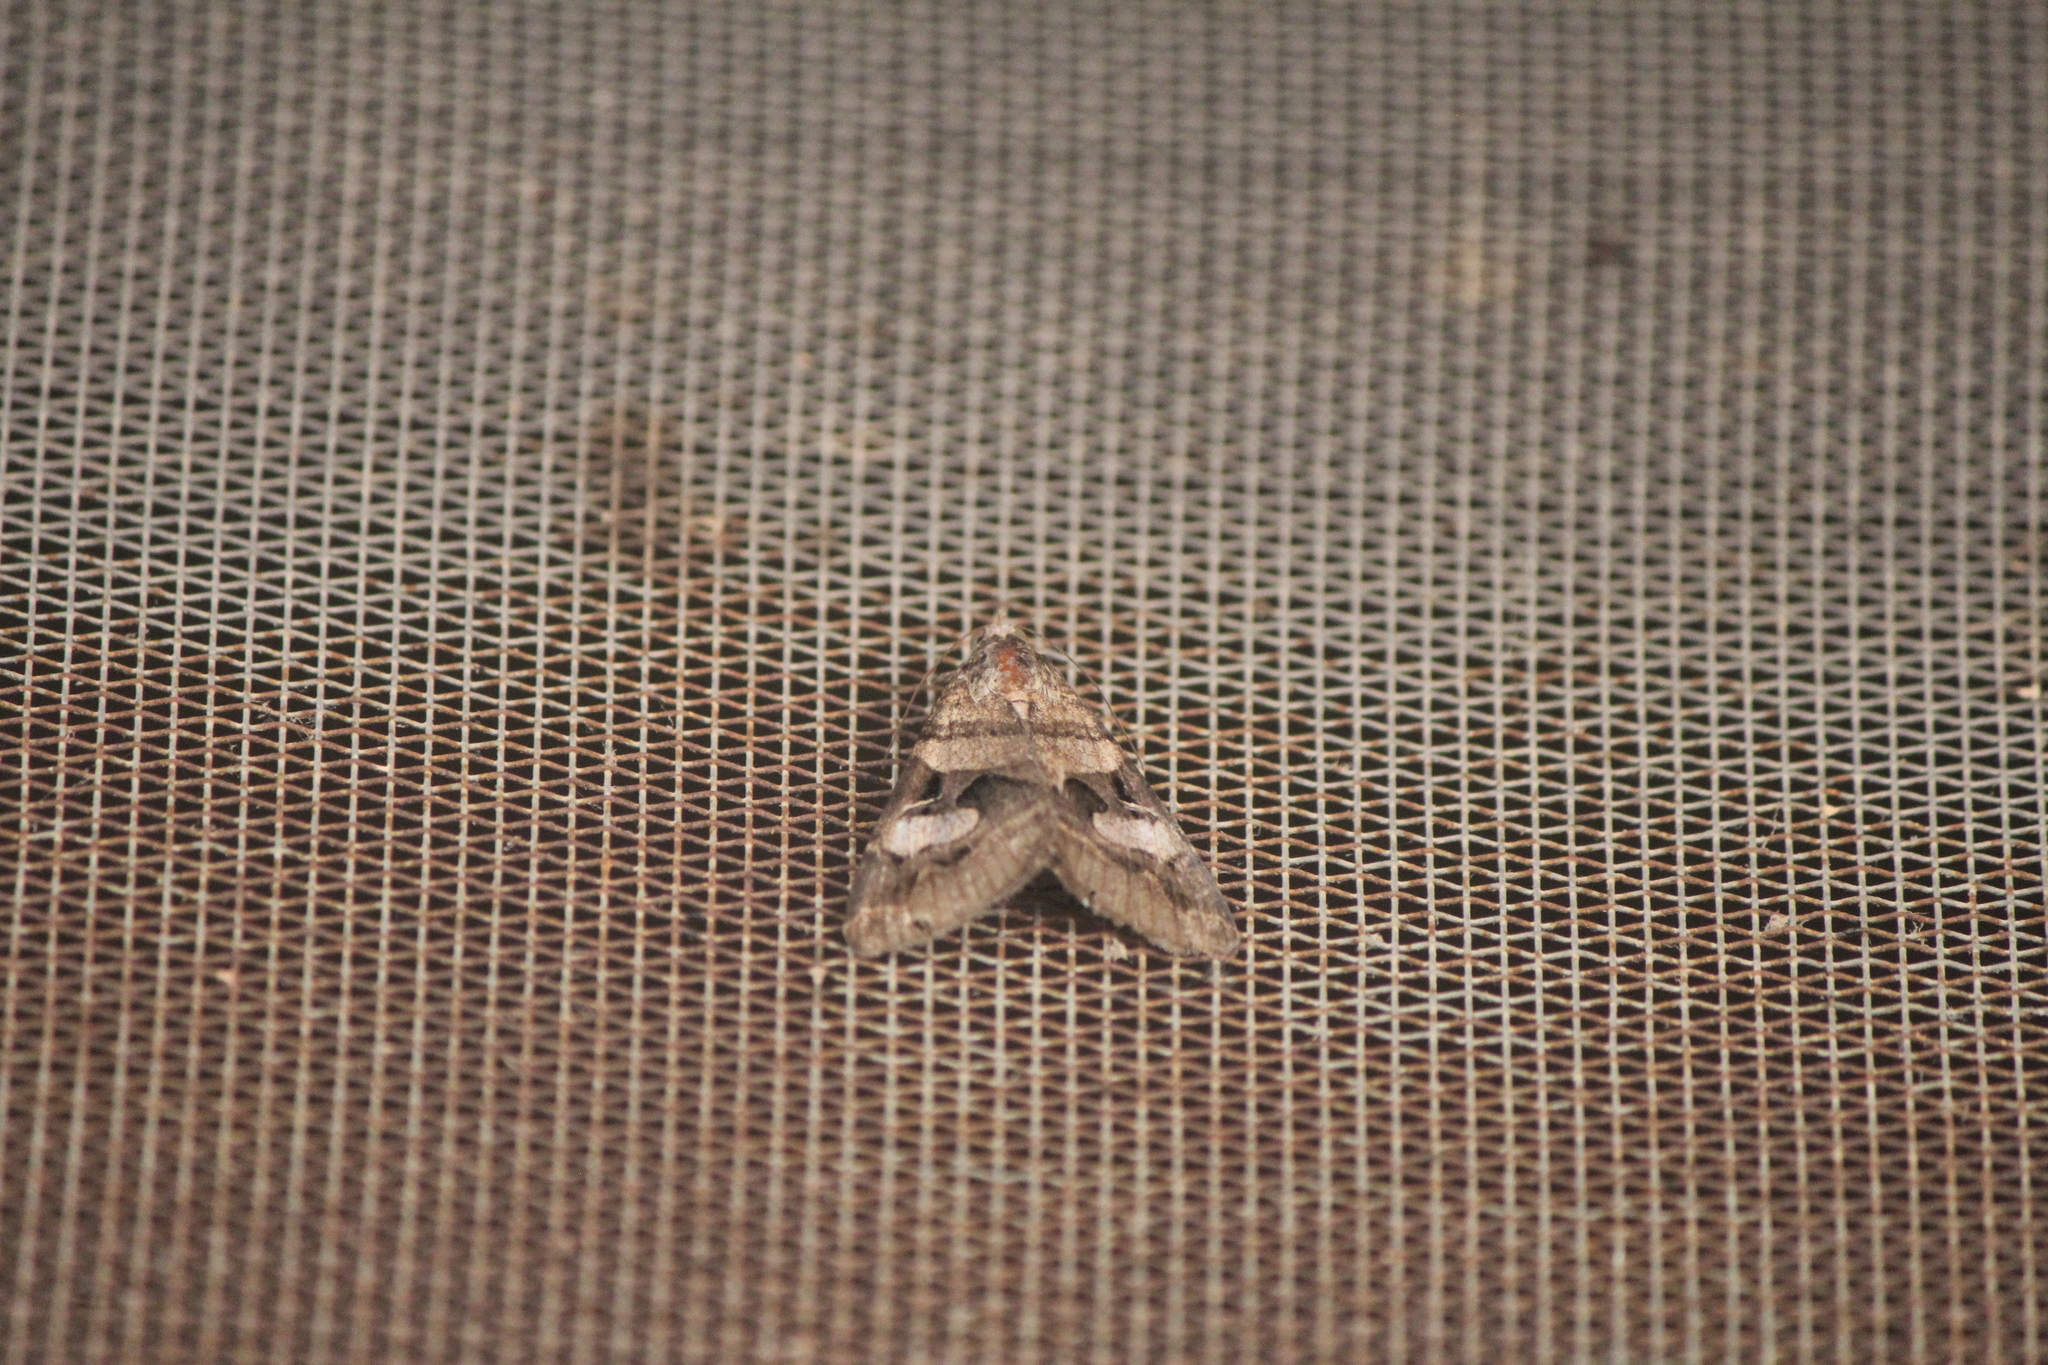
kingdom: Animalia
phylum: Arthropoda
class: Insecta
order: Lepidoptera
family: Erebidae
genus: Melipotis
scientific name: Melipotis perpendicularis
